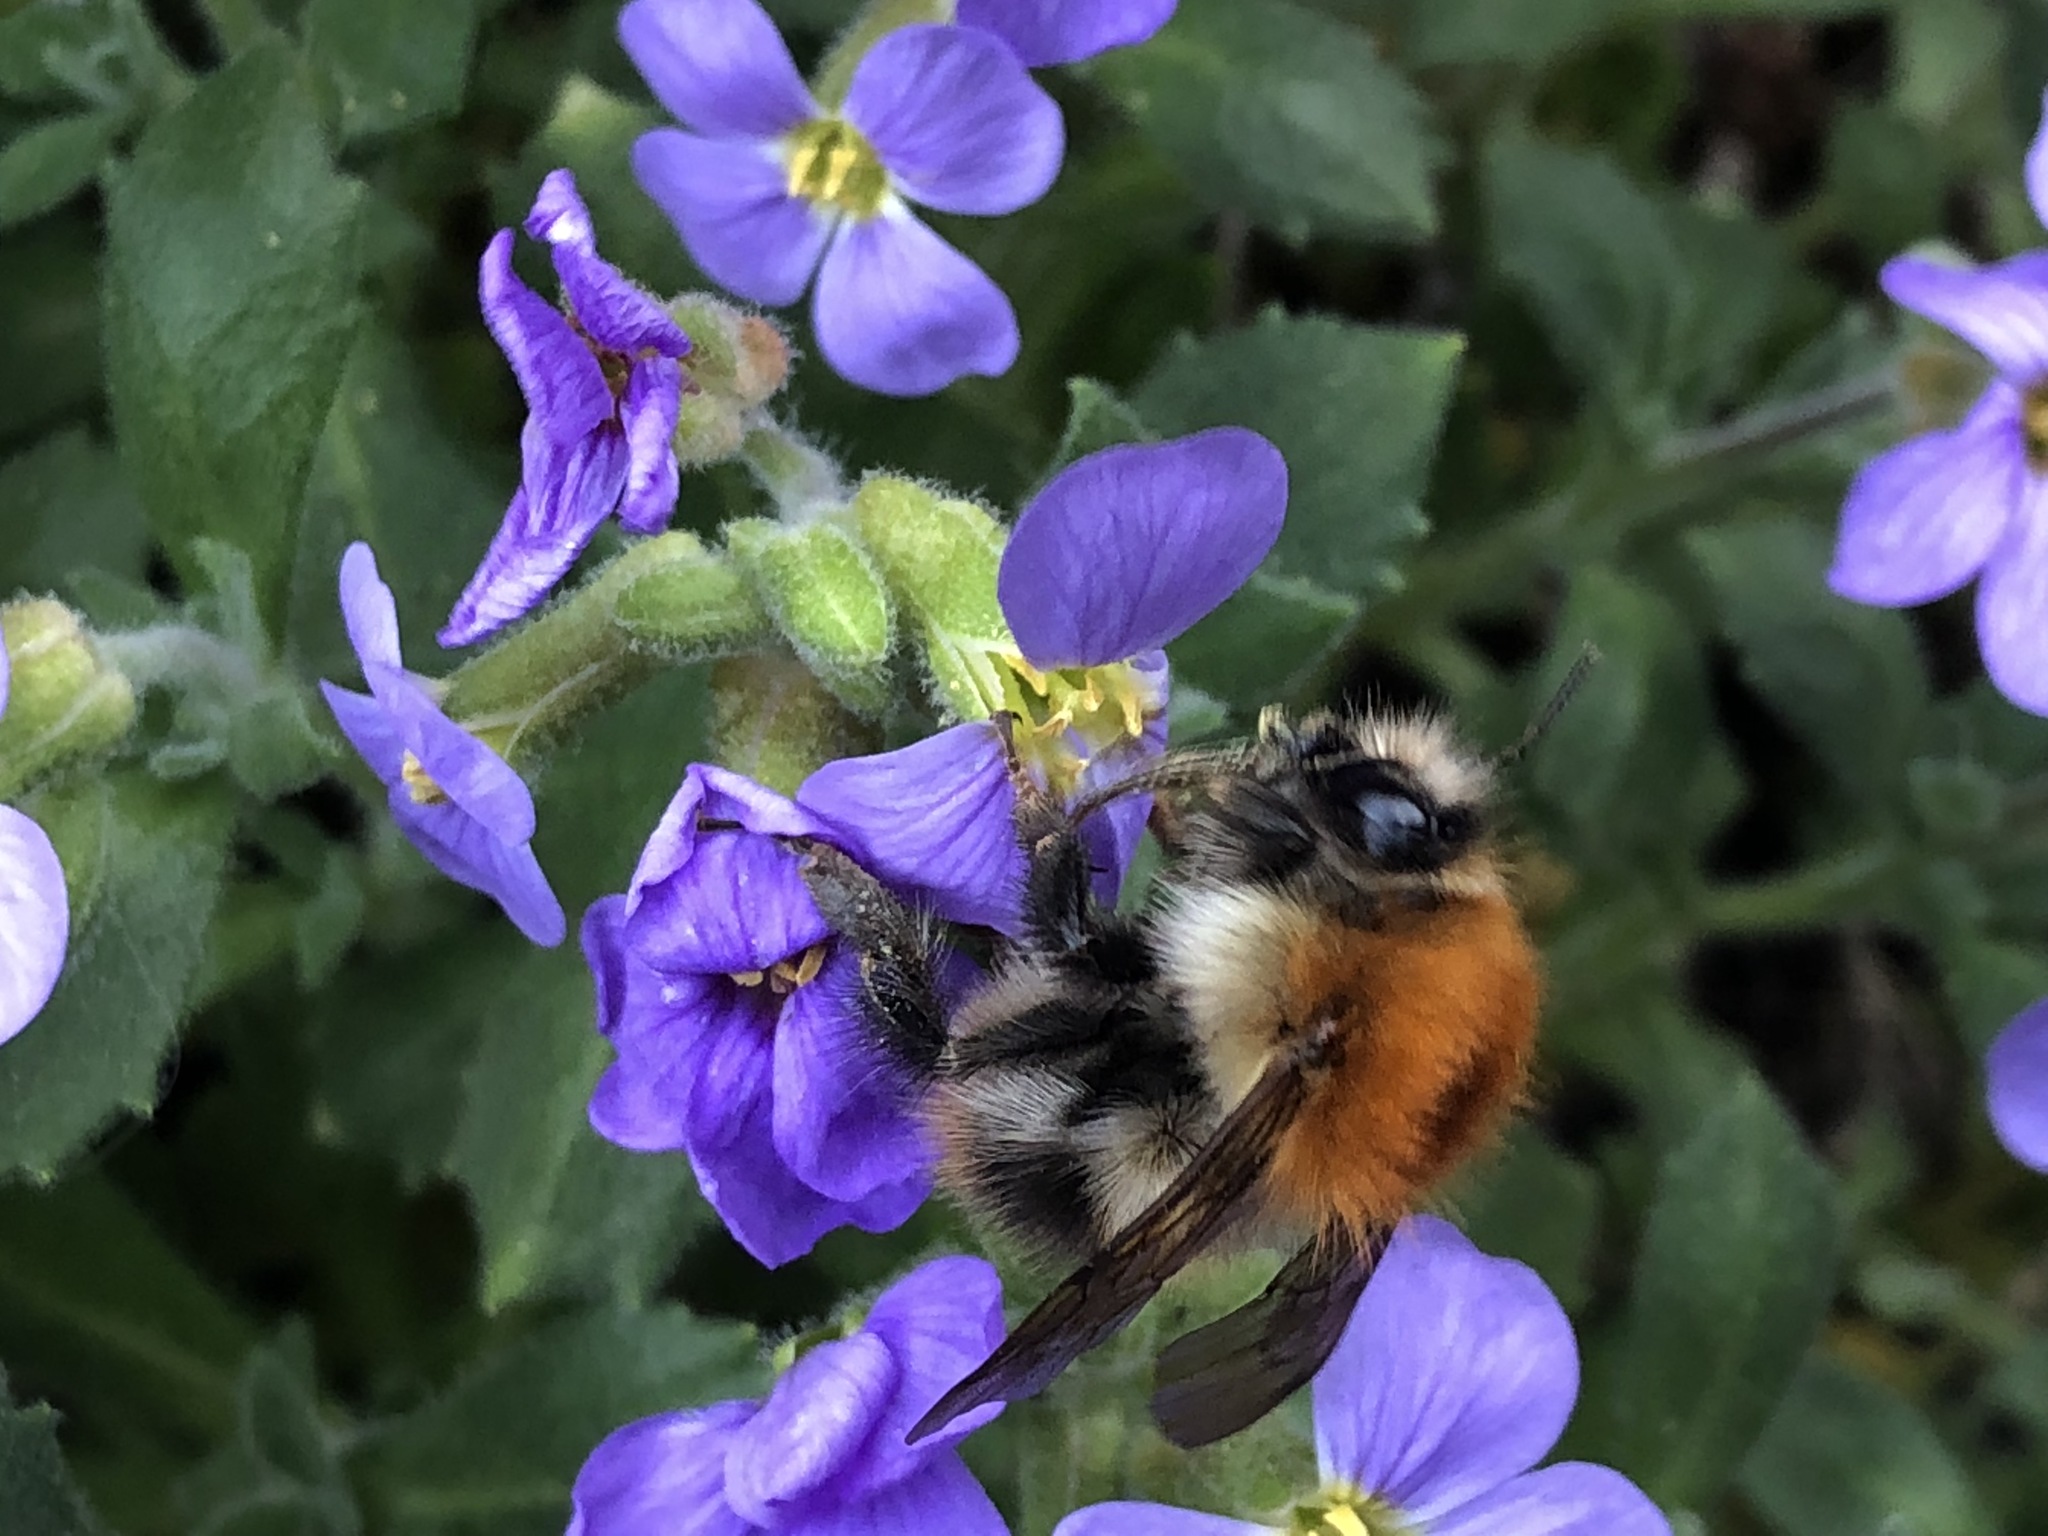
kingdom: Animalia
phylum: Arthropoda
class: Insecta
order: Hymenoptera
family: Apidae
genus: Bombus
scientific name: Bombus pascuorum
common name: Common carder bee
